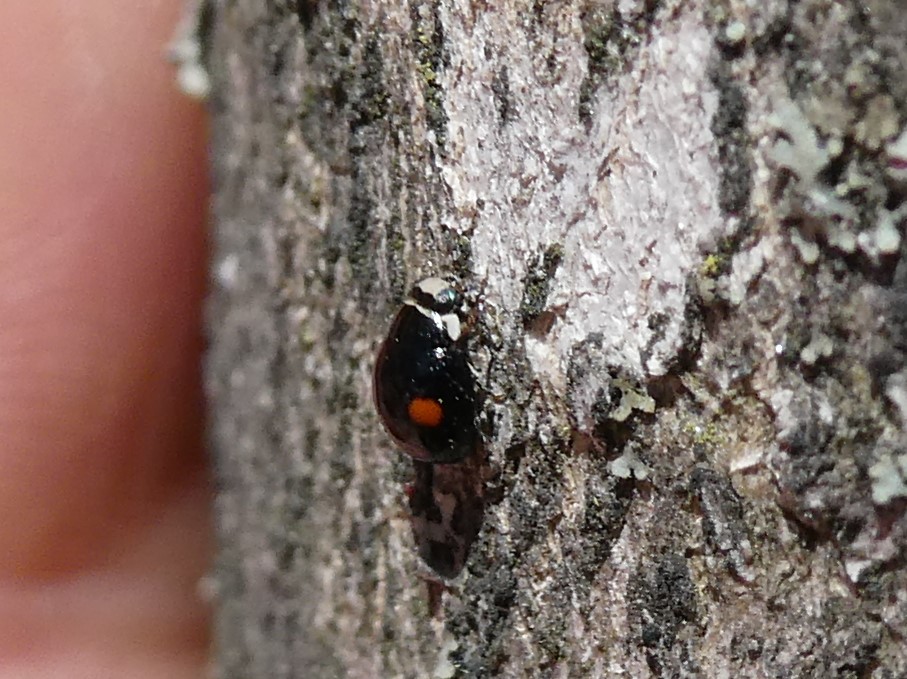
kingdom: Animalia
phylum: Arthropoda
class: Insecta
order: Coleoptera
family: Coccinellidae
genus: Hyperaspis
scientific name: Hyperaspis binotata
